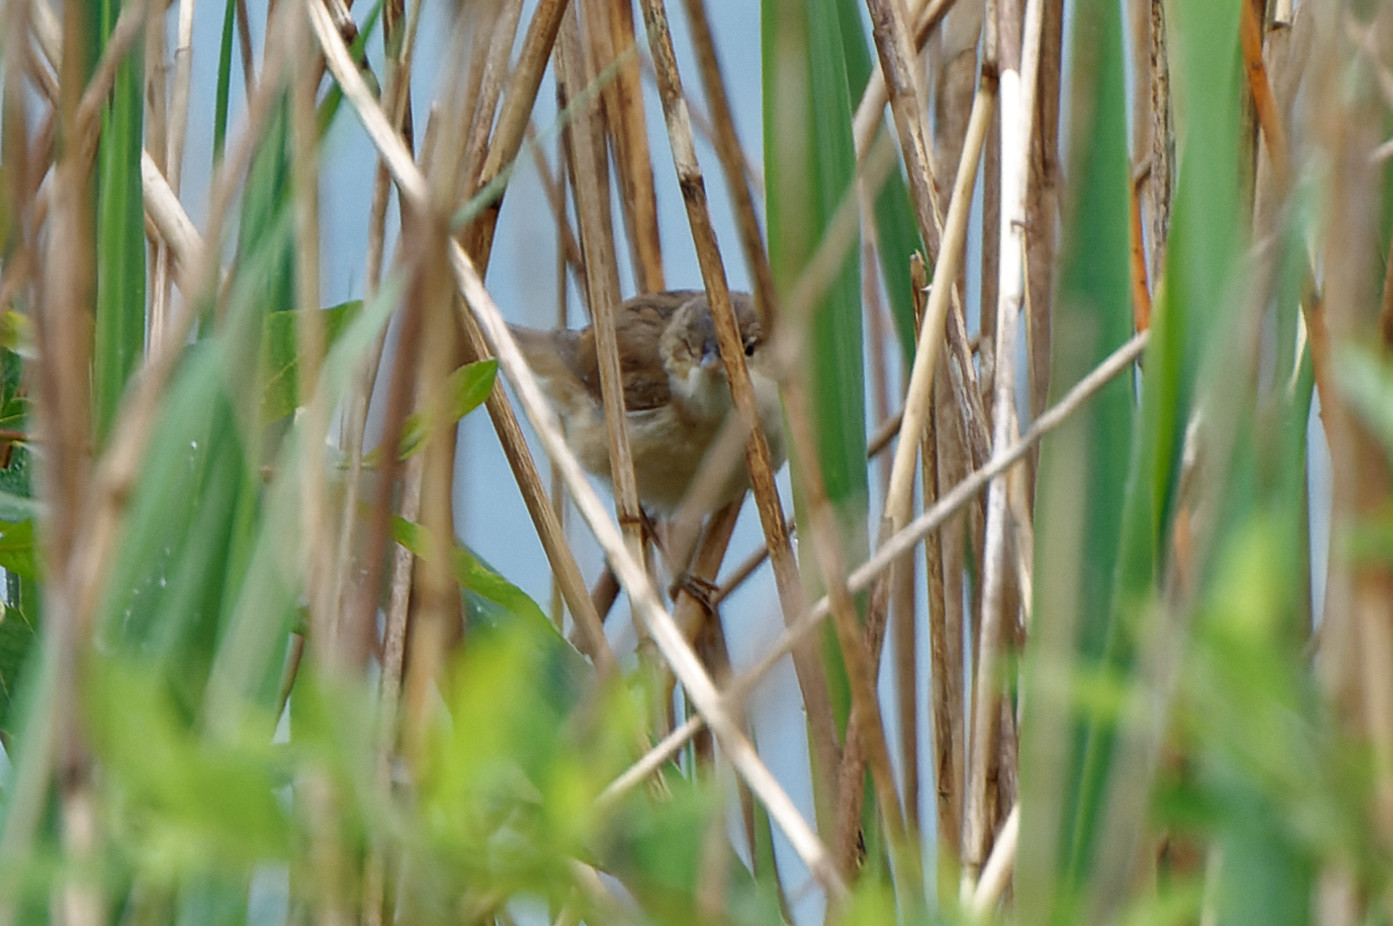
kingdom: Animalia
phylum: Chordata
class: Aves
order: Passeriformes
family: Acrocephalidae
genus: Acrocephalus
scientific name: Acrocephalus scirpaceus
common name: Eurasian reed warbler
